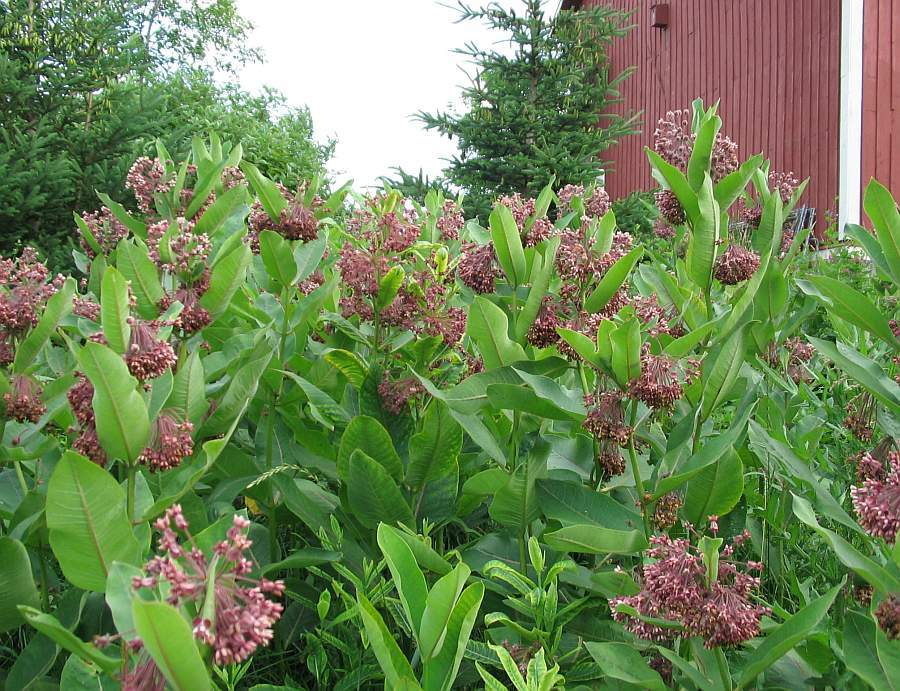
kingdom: Plantae
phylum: Tracheophyta
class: Magnoliopsida
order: Gentianales
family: Apocynaceae
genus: Asclepias
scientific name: Asclepias syriaca
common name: Common milkweed
